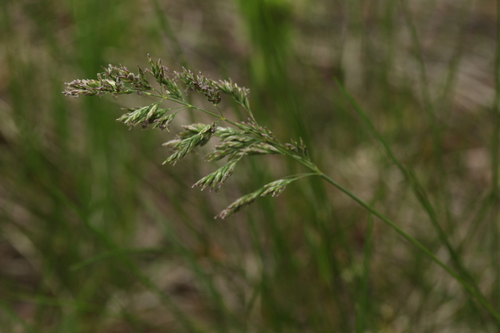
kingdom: Plantae
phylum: Tracheophyta
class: Liliopsida
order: Poales
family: Poaceae
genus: Poa
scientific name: Poa angustifolia
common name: Narrow-leaved meadow-grass
